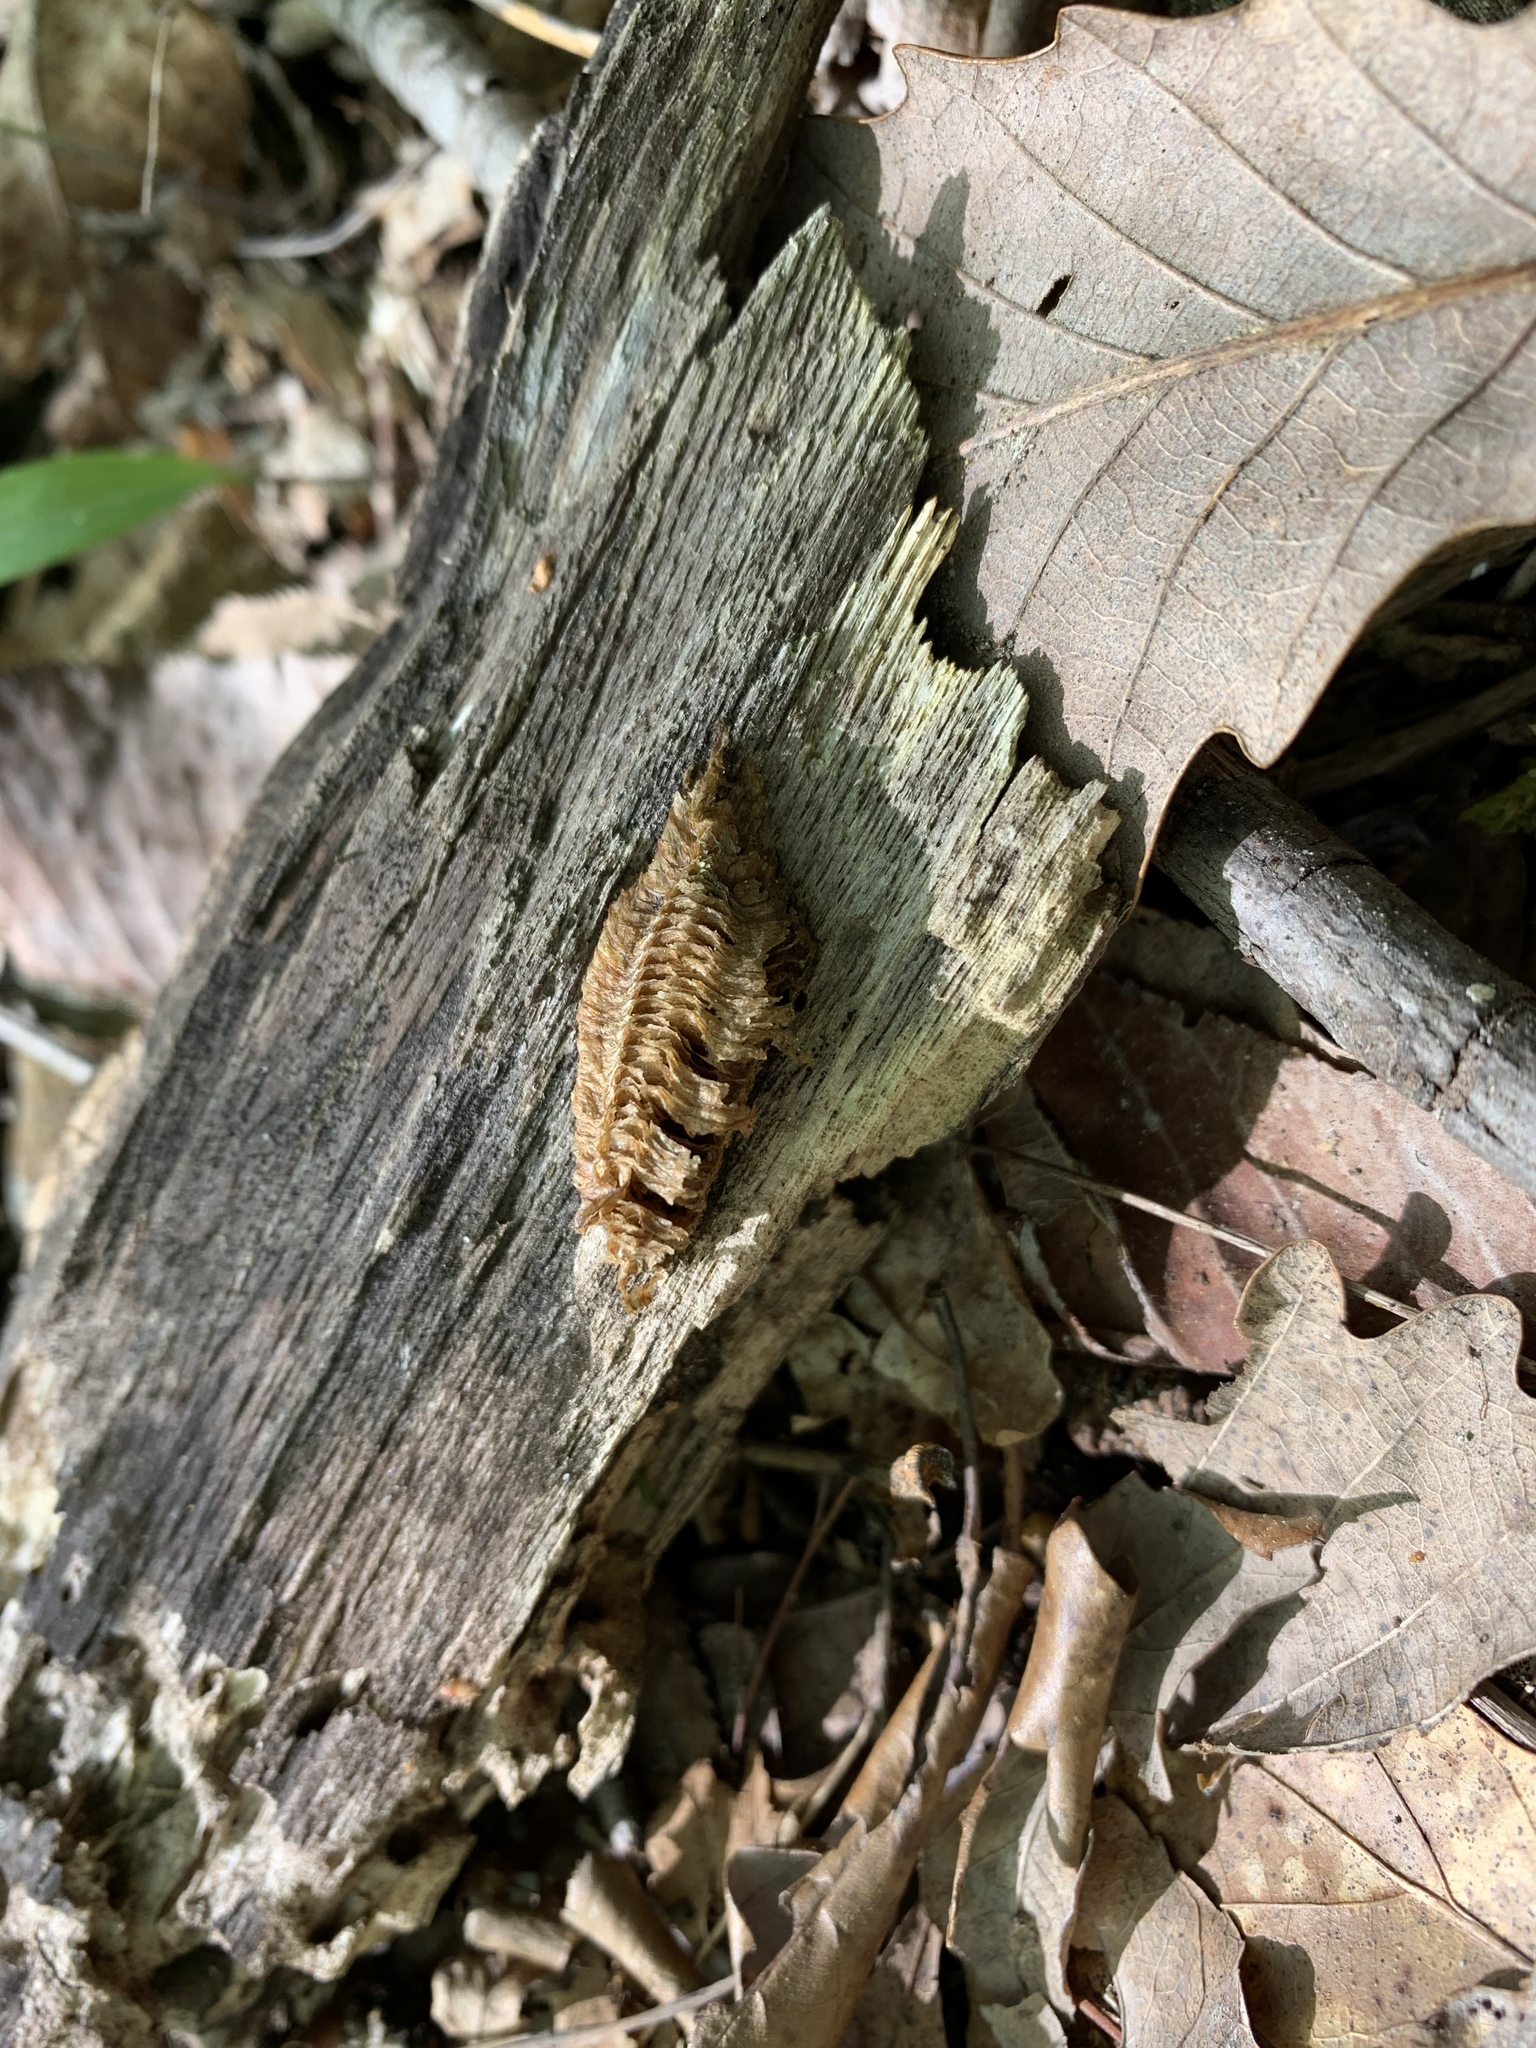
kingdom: Animalia
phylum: Arthropoda
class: Insecta
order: Mantodea
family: Mantidae
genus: Stagmomantis
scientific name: Stagmomantis carolina
